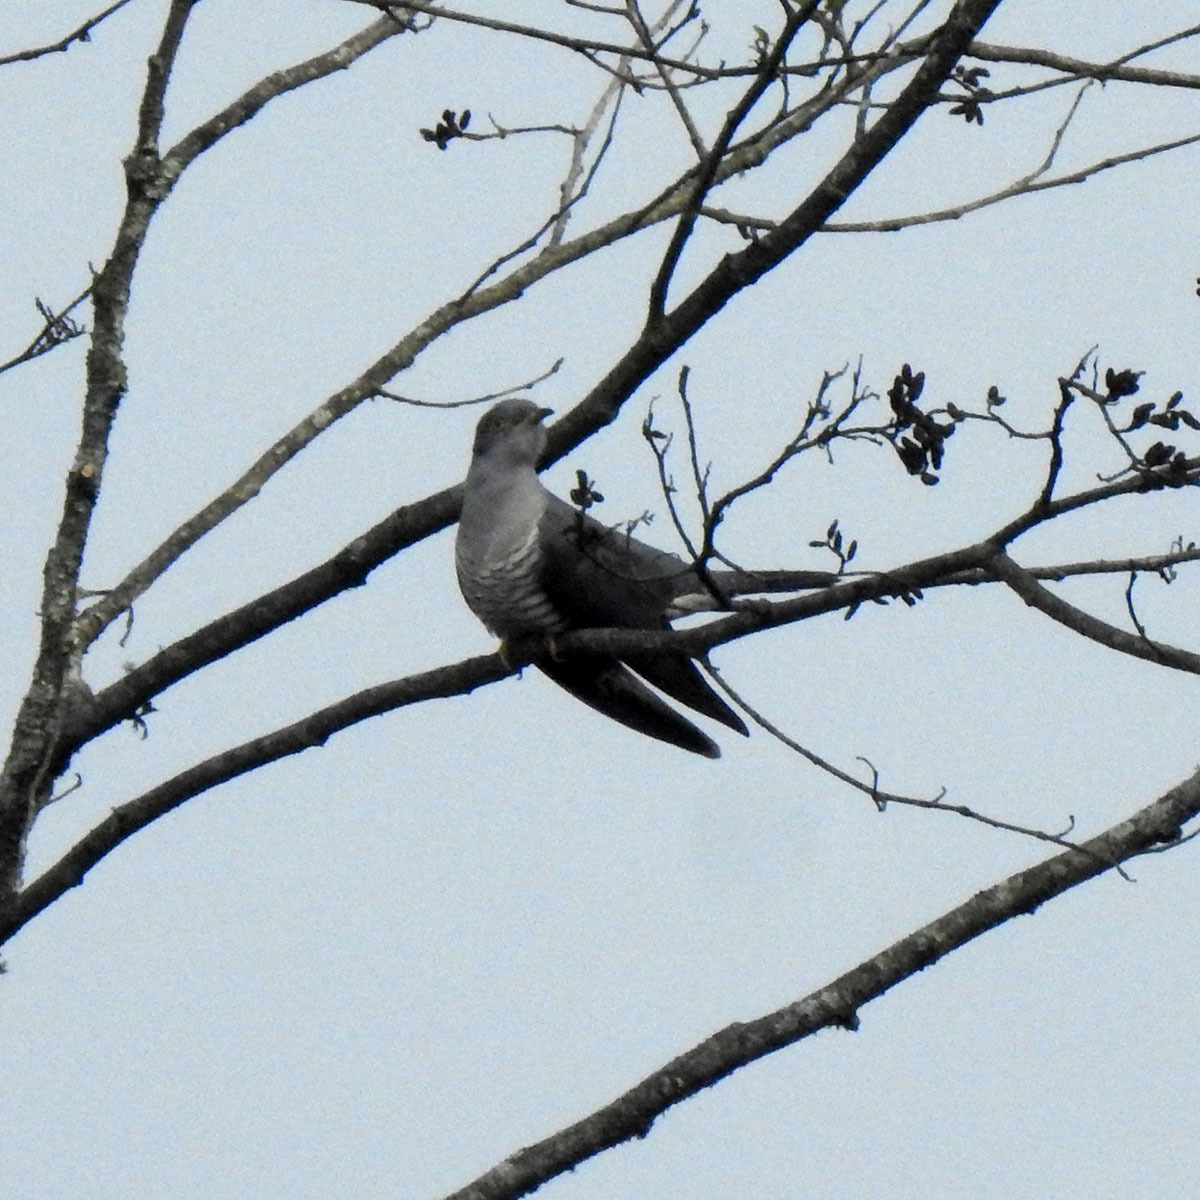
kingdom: Animalia
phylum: Chordata
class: Aves
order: Cuculiformes
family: Cuculidae
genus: Cuculus
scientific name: Cuculus canorus
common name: Common cuckoo
